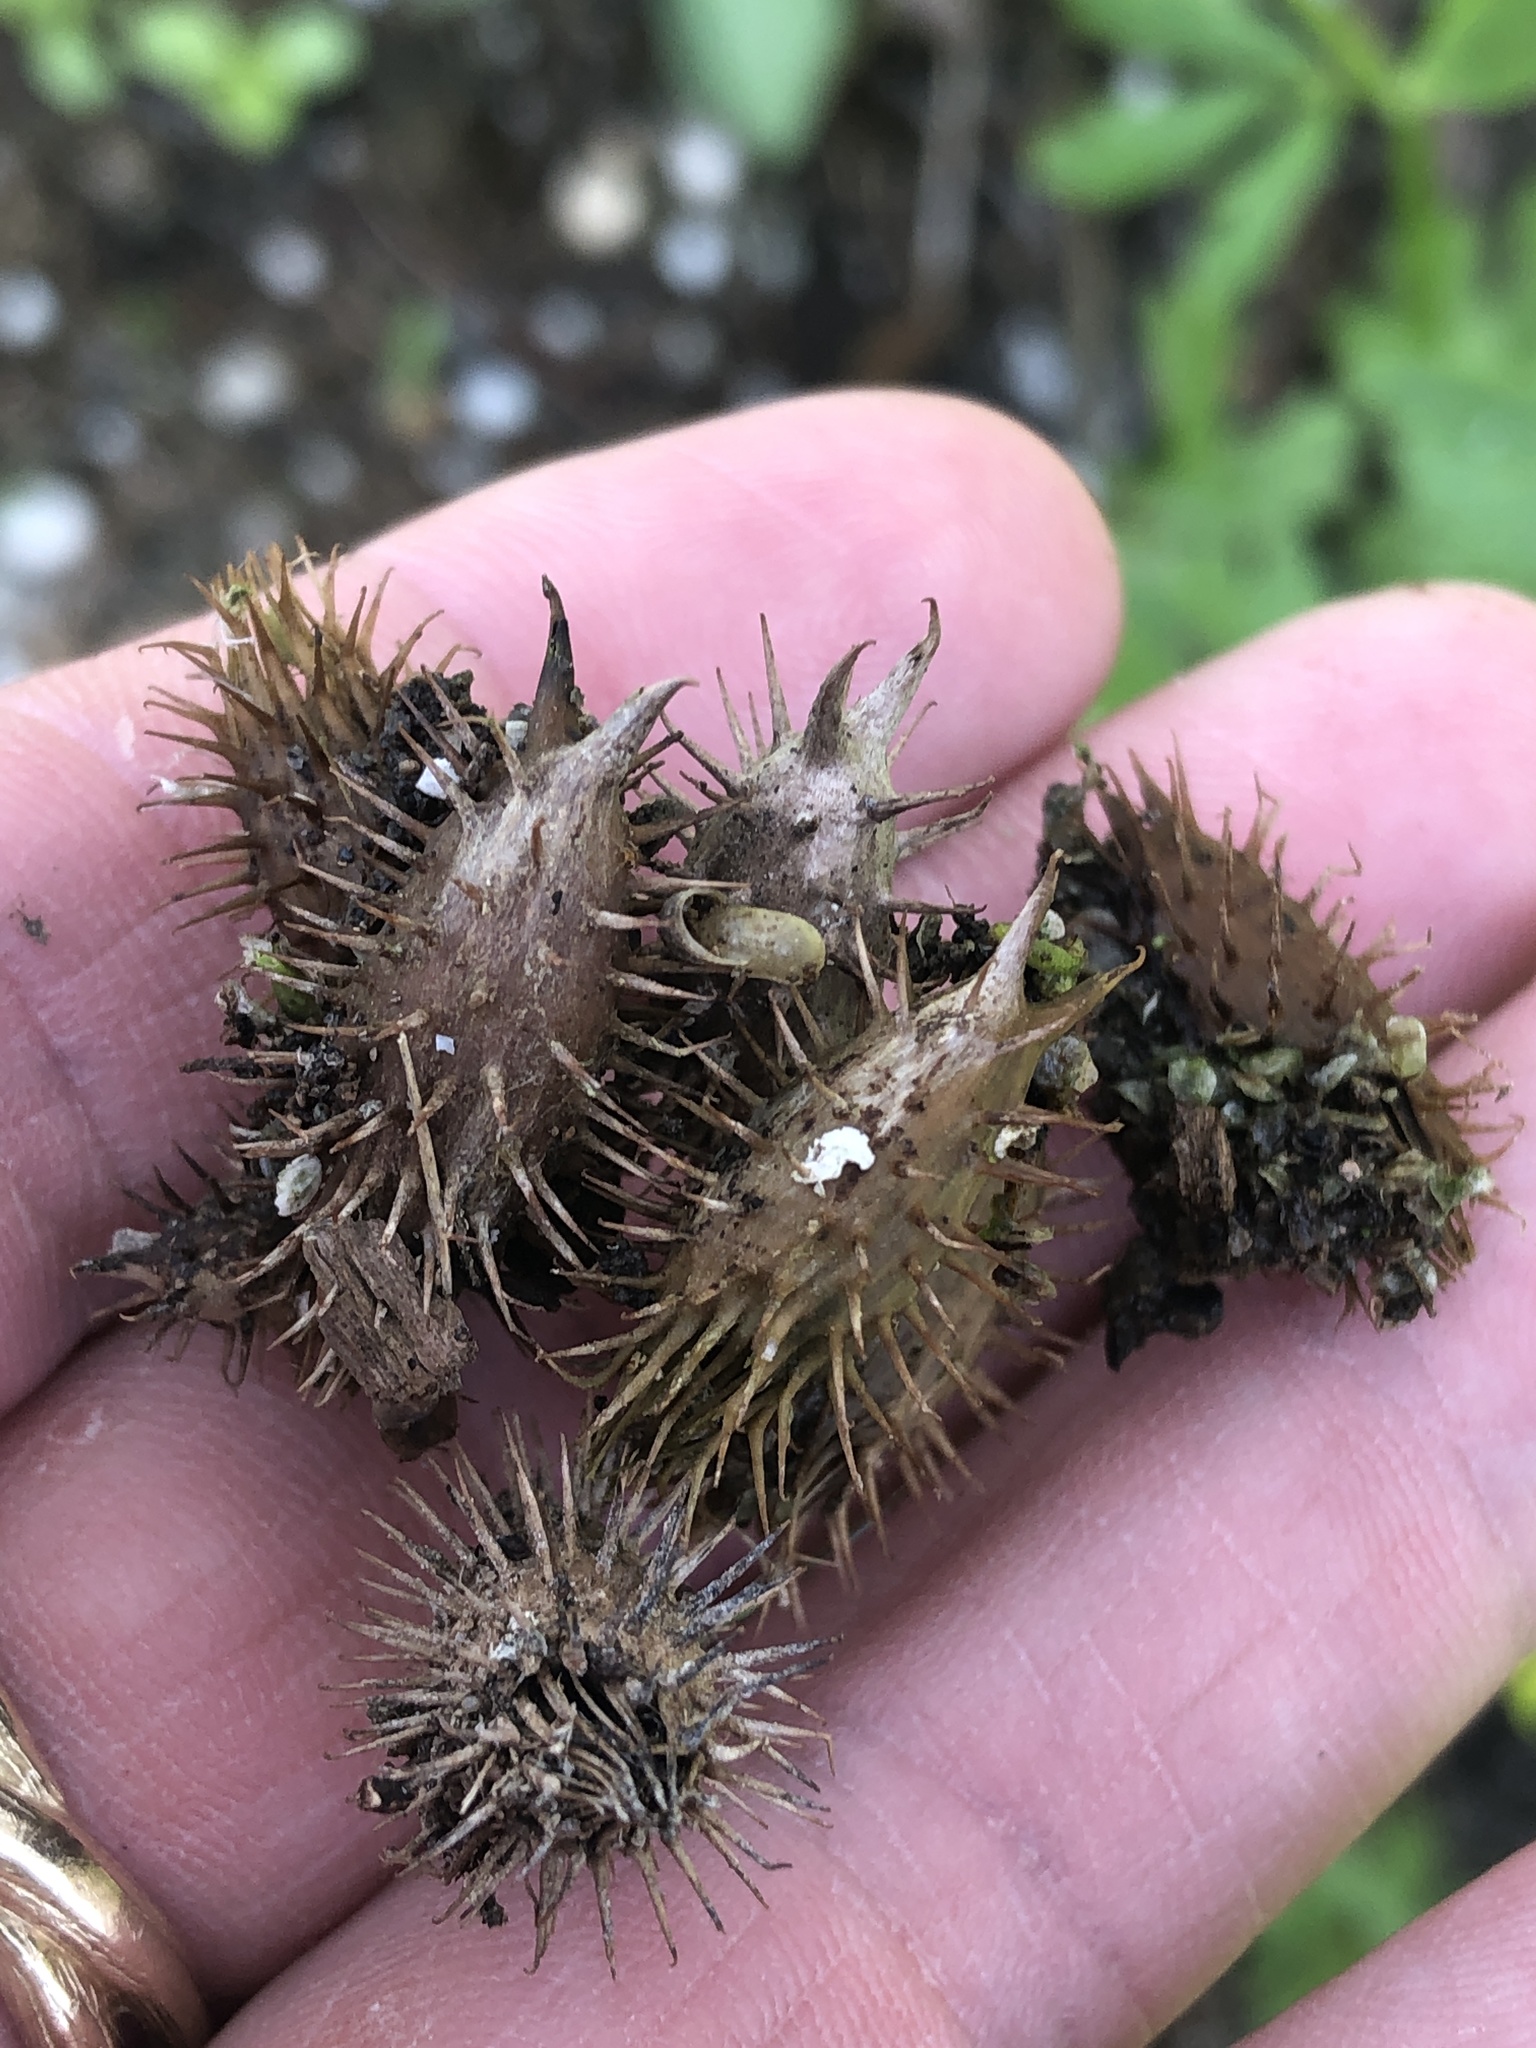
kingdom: Plantae
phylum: Tracheophyta
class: Magnoliopsida
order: Asterales
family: Asteraceae
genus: Xanthium
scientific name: Xanthium strumarium
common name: Rough cocklebur
